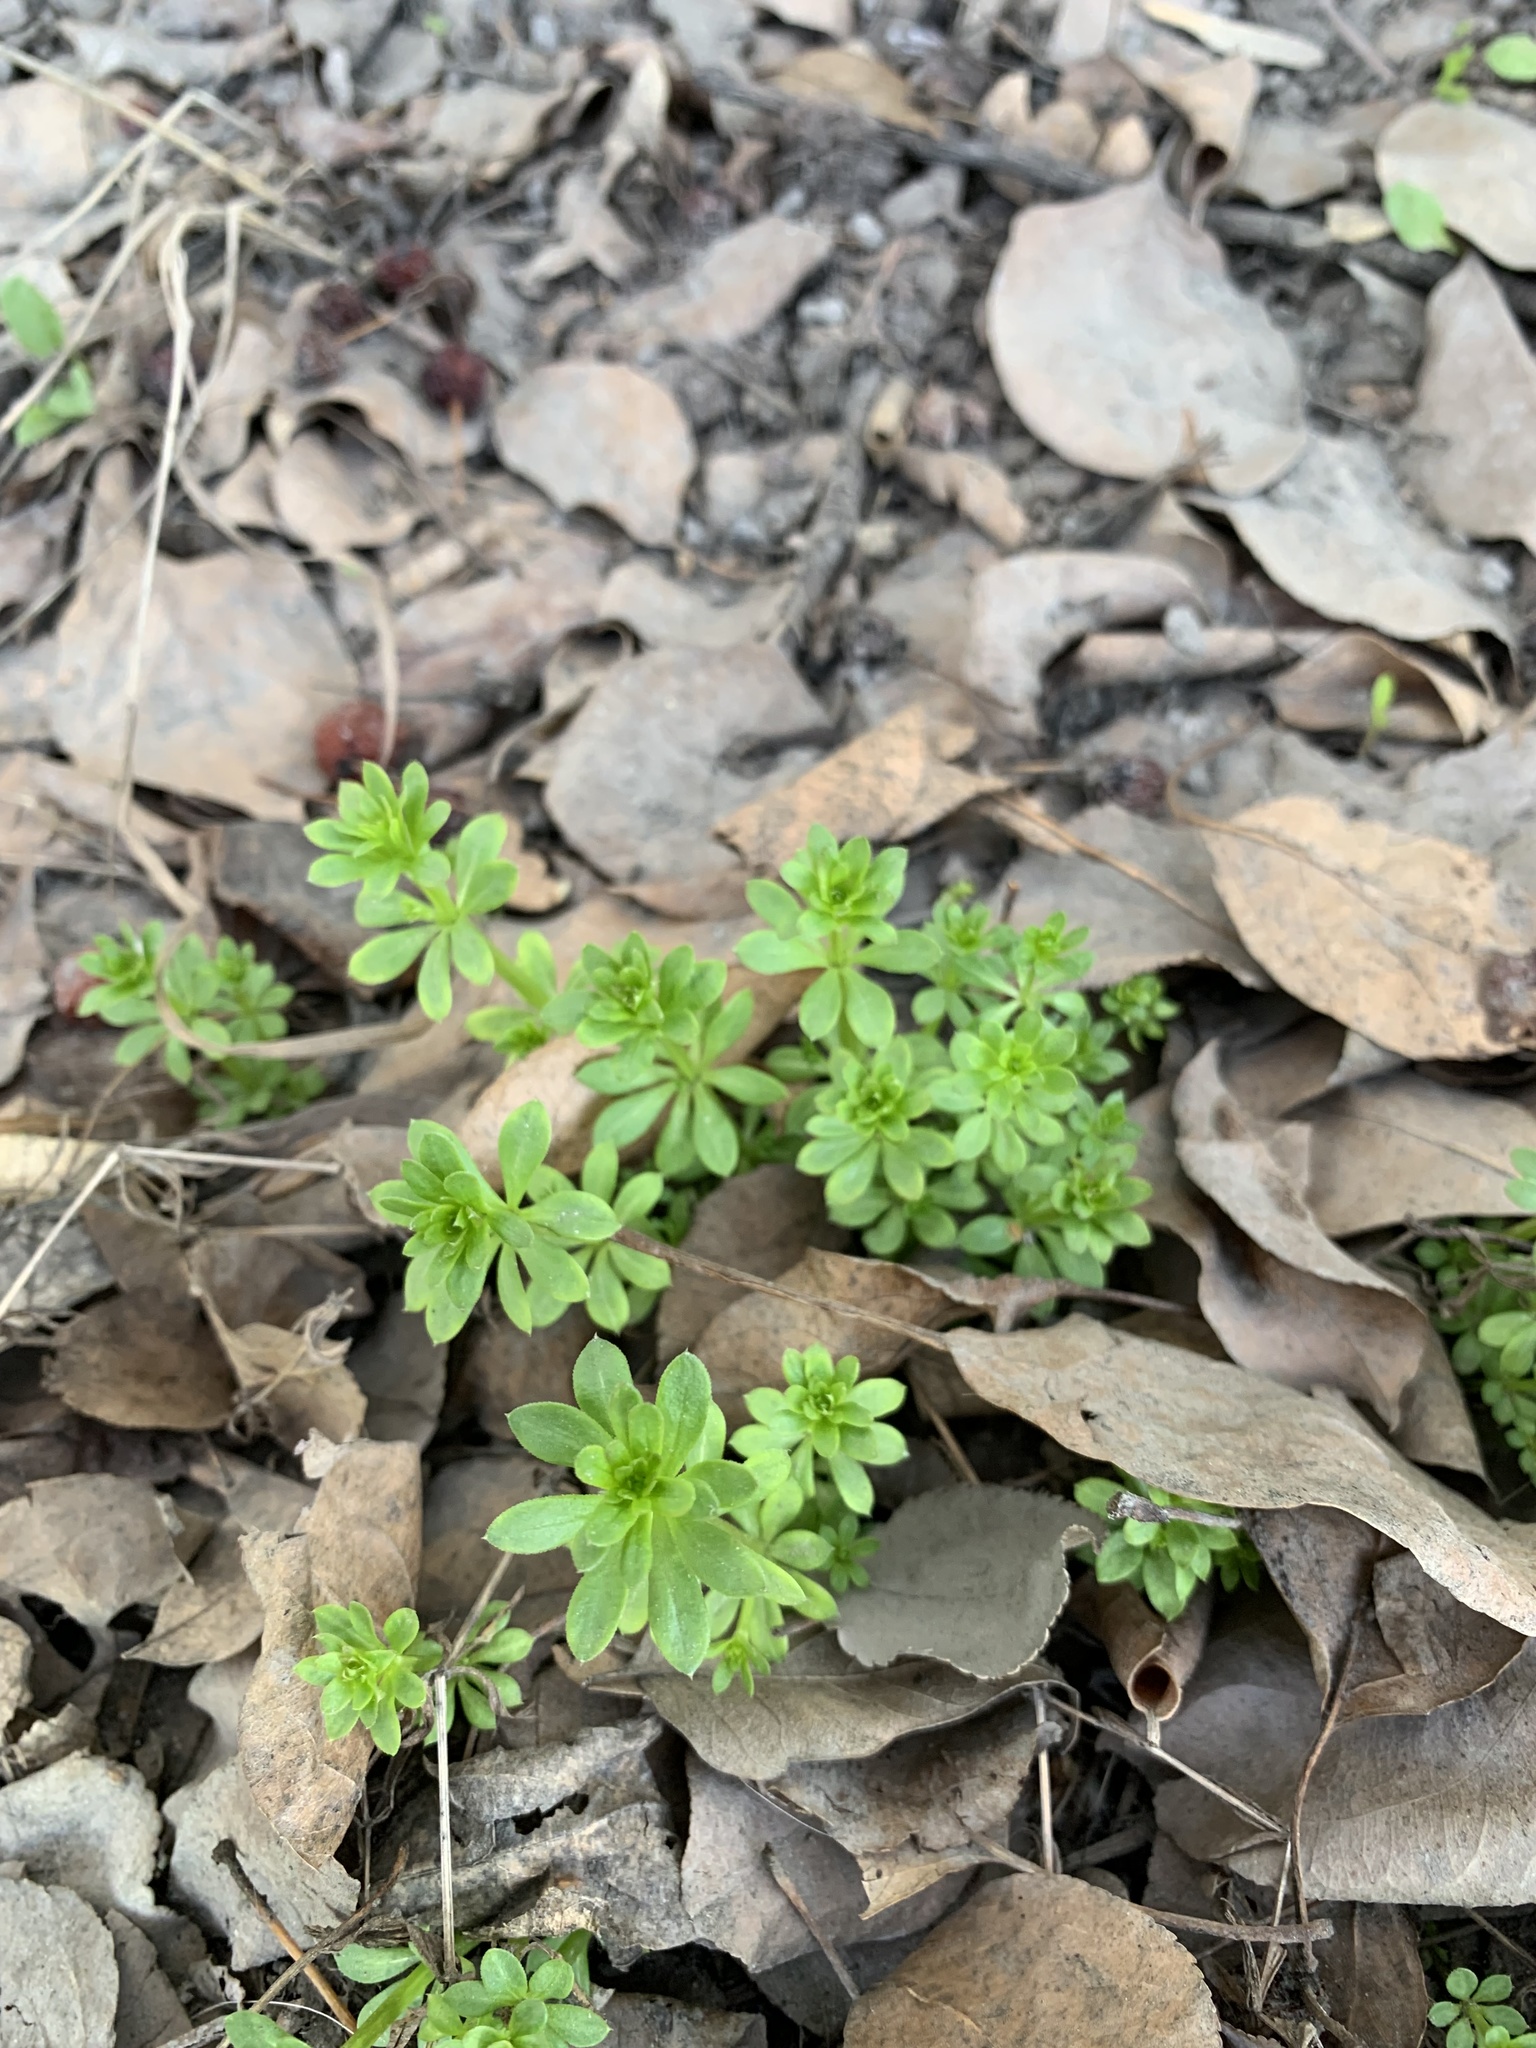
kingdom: Plantae
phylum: Tracheophyta
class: Magnoliopsida
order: Gentianales
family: Rubiaceae
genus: Galium
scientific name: Galium mollugo
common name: Hedge bedstraw
